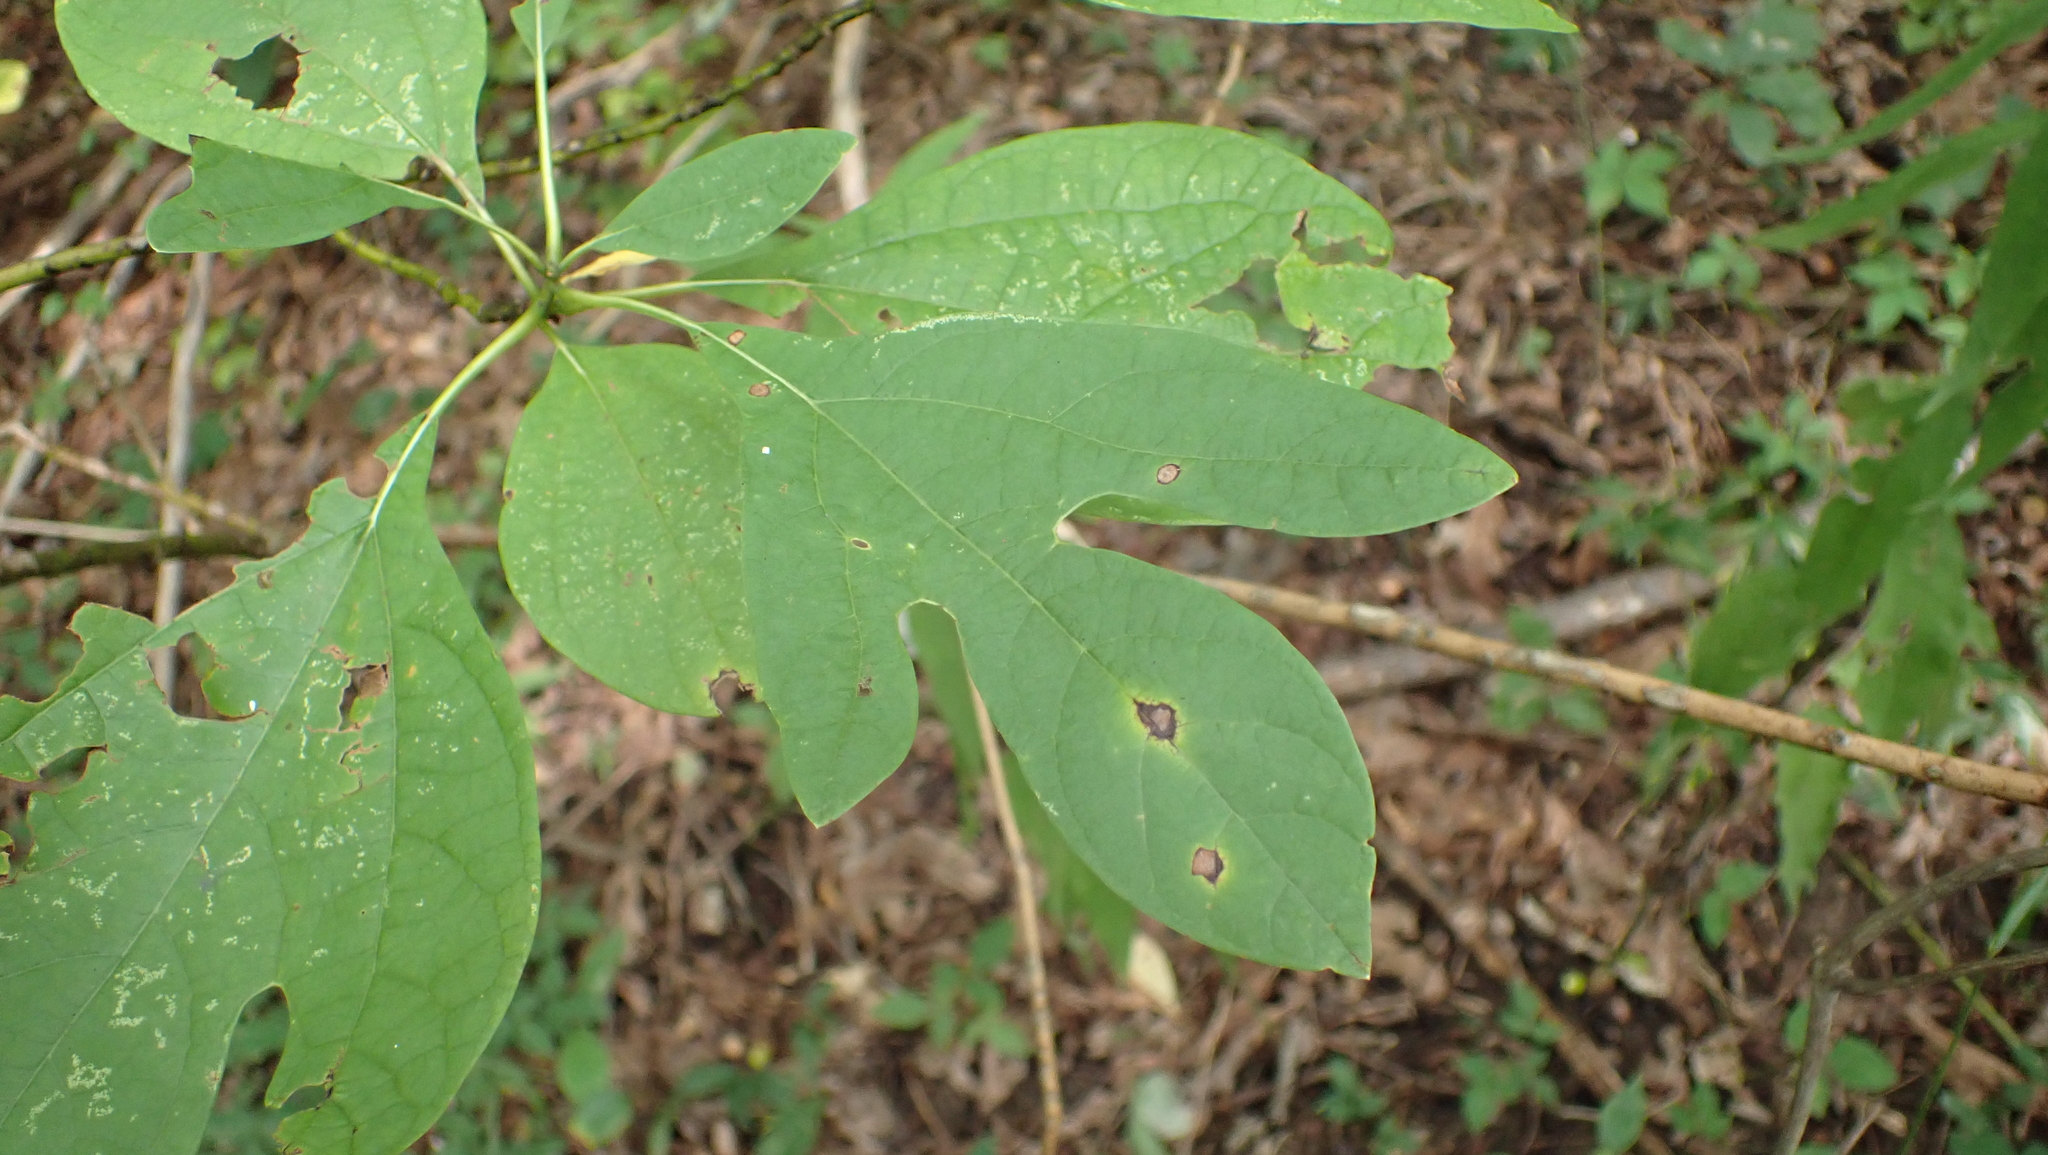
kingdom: Plantae
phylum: Tracheophyta
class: Magnoliopsida
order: Laurales
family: Lauraceae
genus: Sassafras
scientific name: Sassafras albidum
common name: Sassafras
